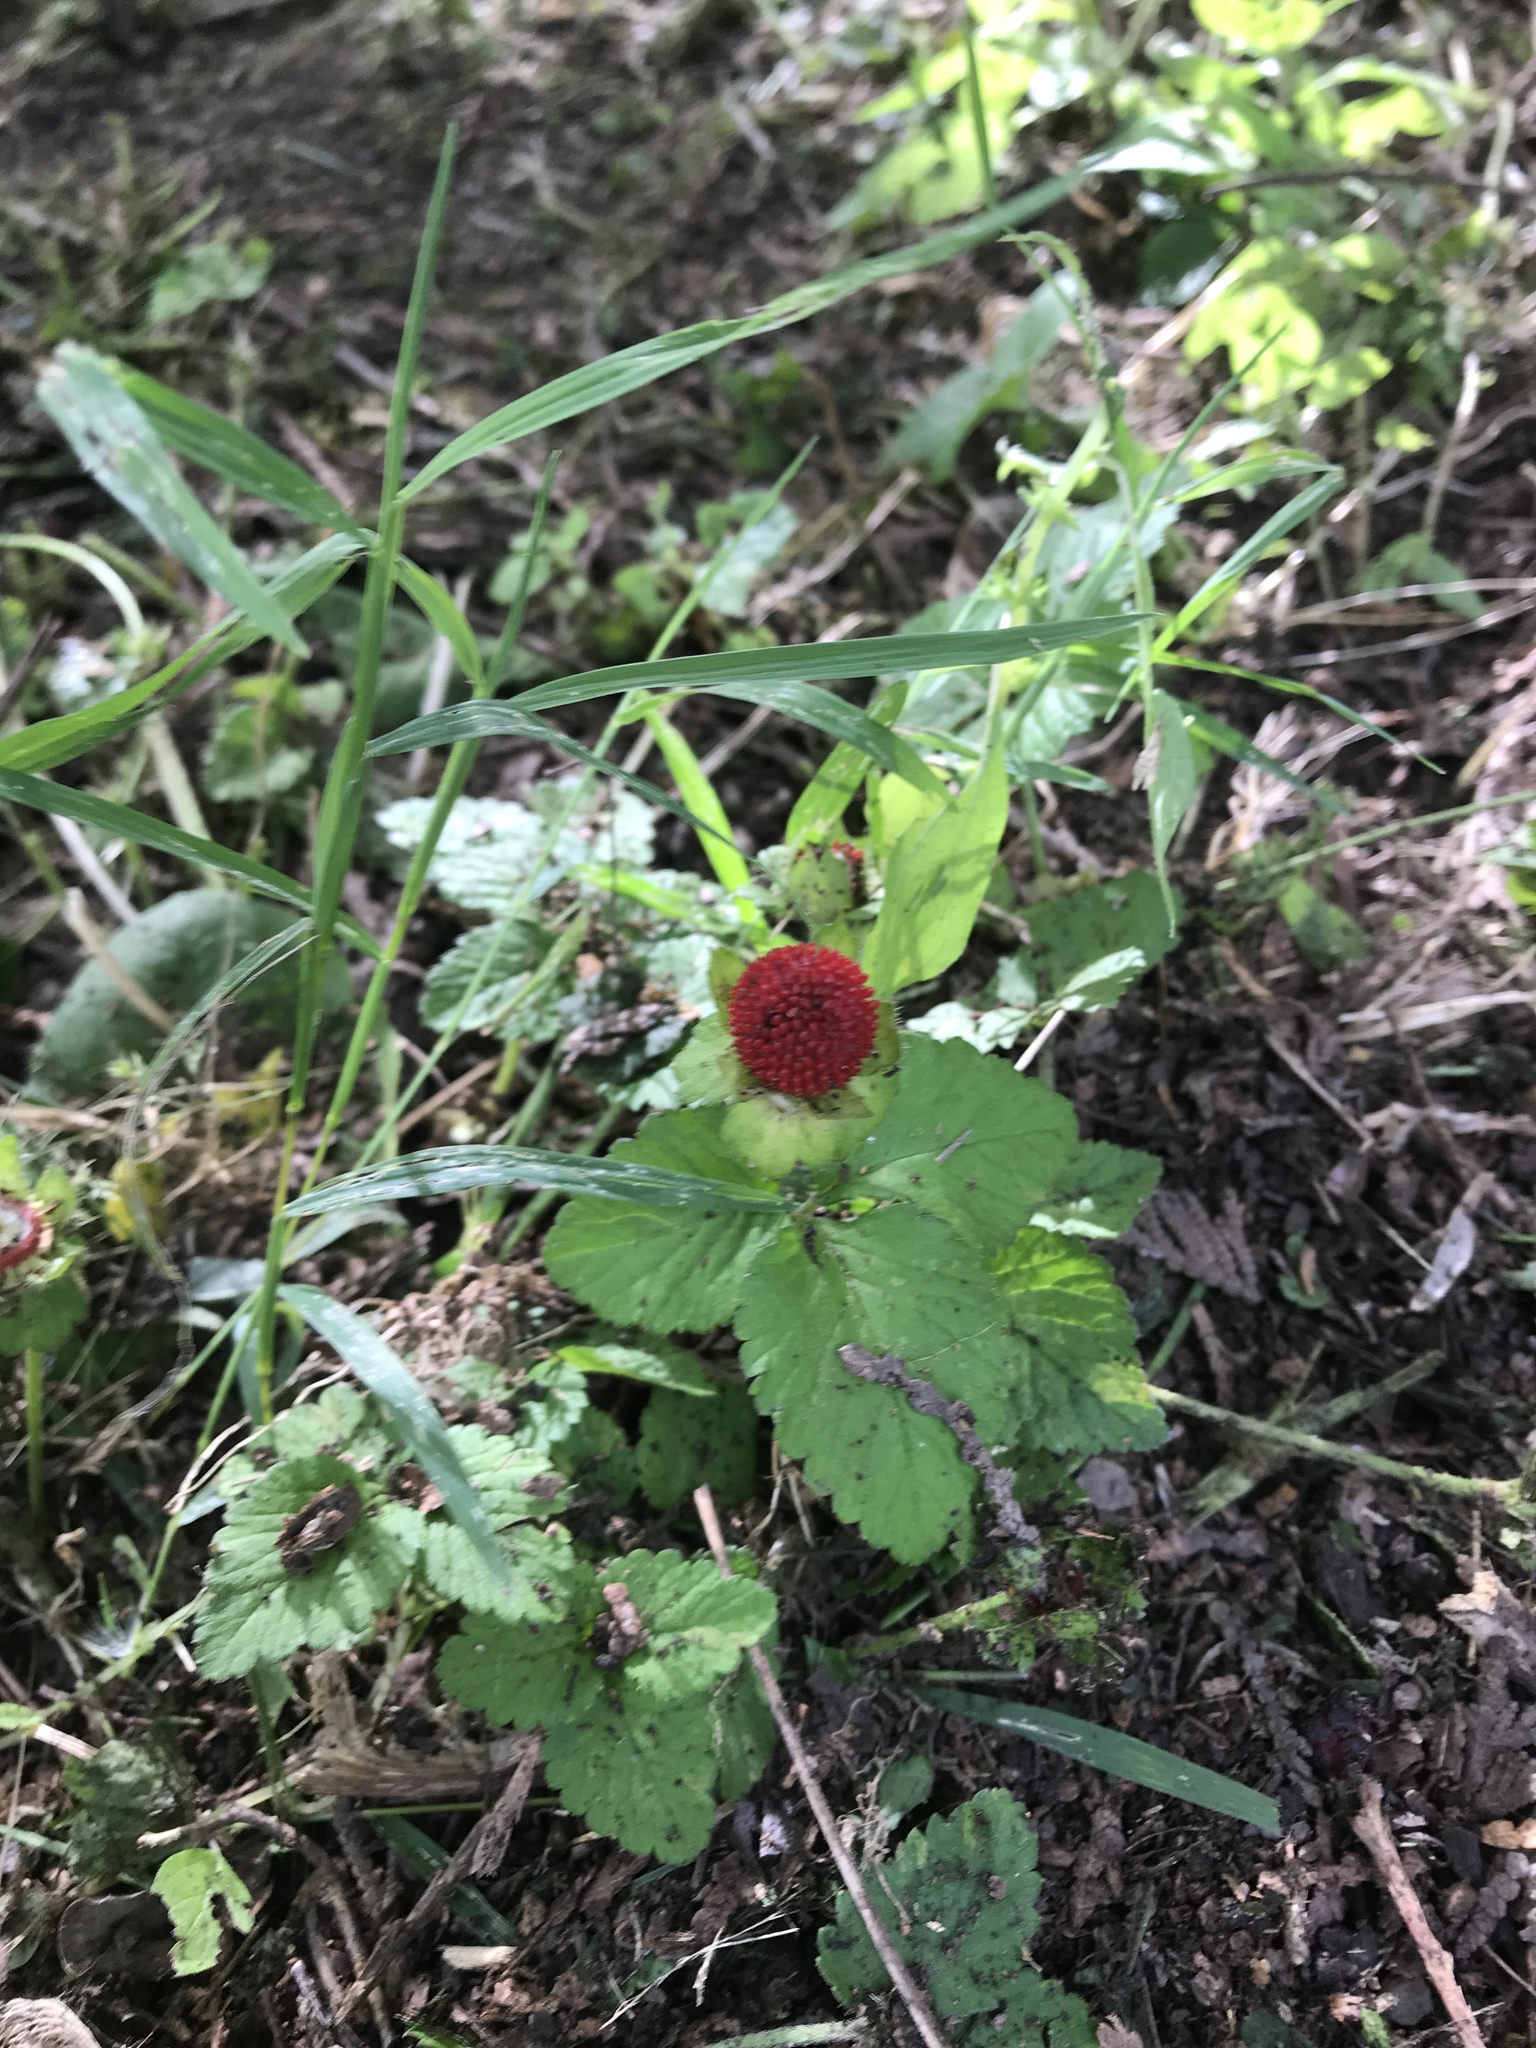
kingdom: Plantae
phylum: Tracheophyta
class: Magnoliopsida
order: Rosales
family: Rosaceae
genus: Potentilla
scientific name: Potentilla indica
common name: Yellow-flowered strawberry
